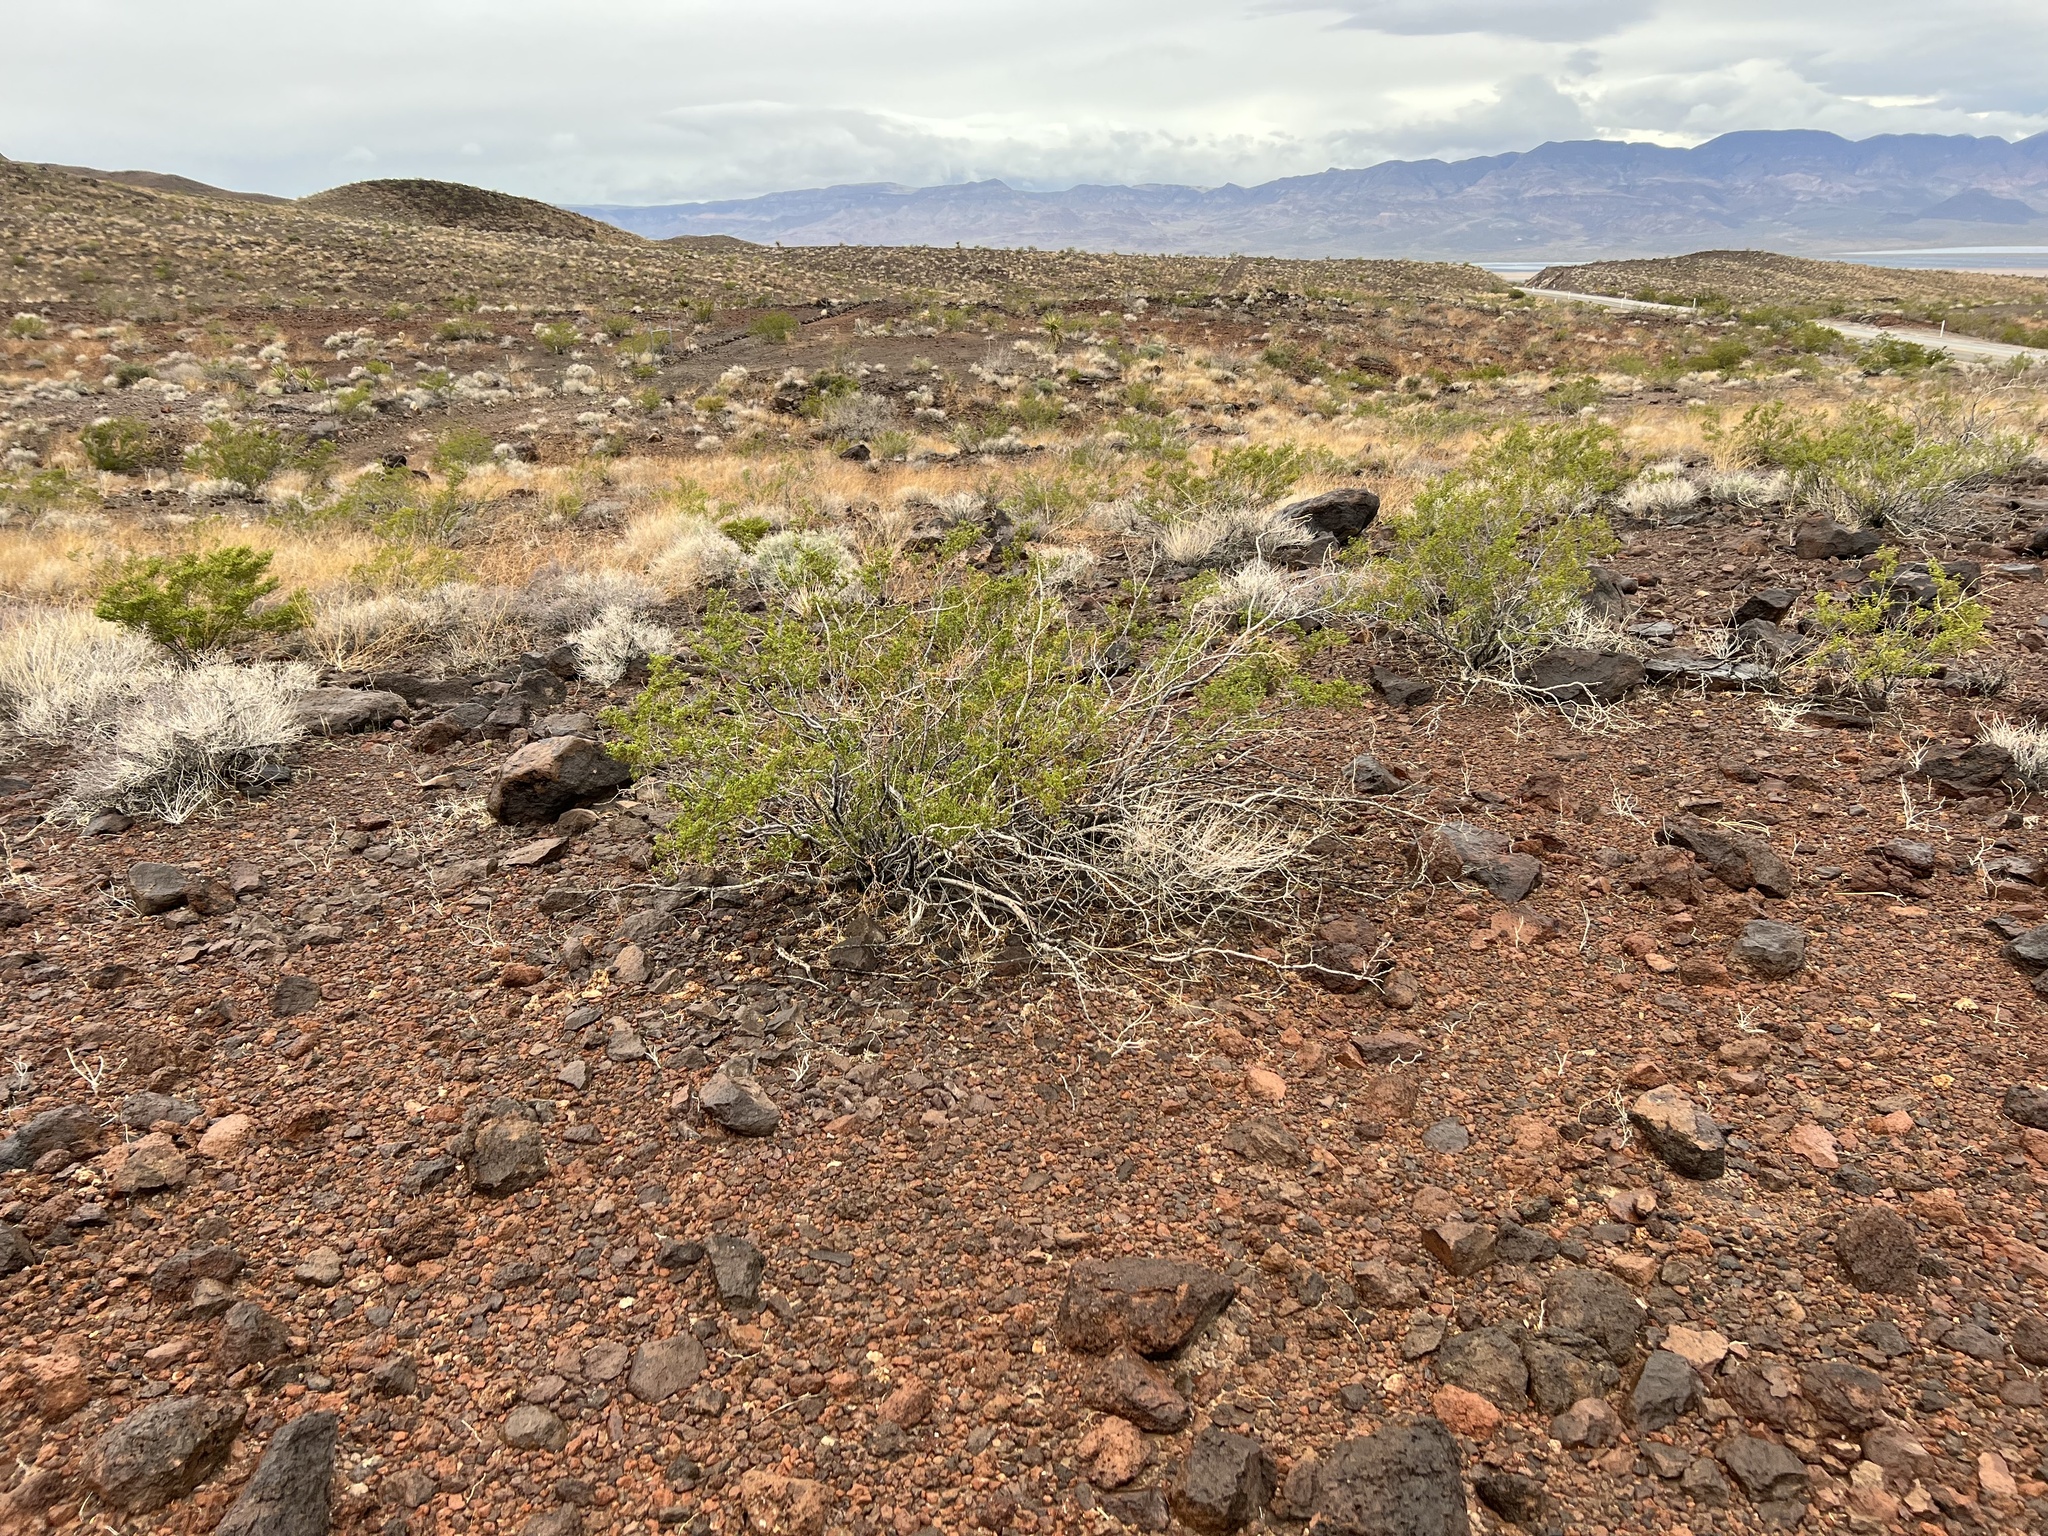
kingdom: Plantae
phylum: Tracheophyta
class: Magnoliopsida
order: Zygophyllales
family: Zygophyllaceae
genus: Larrea
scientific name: Larrea tridentata
